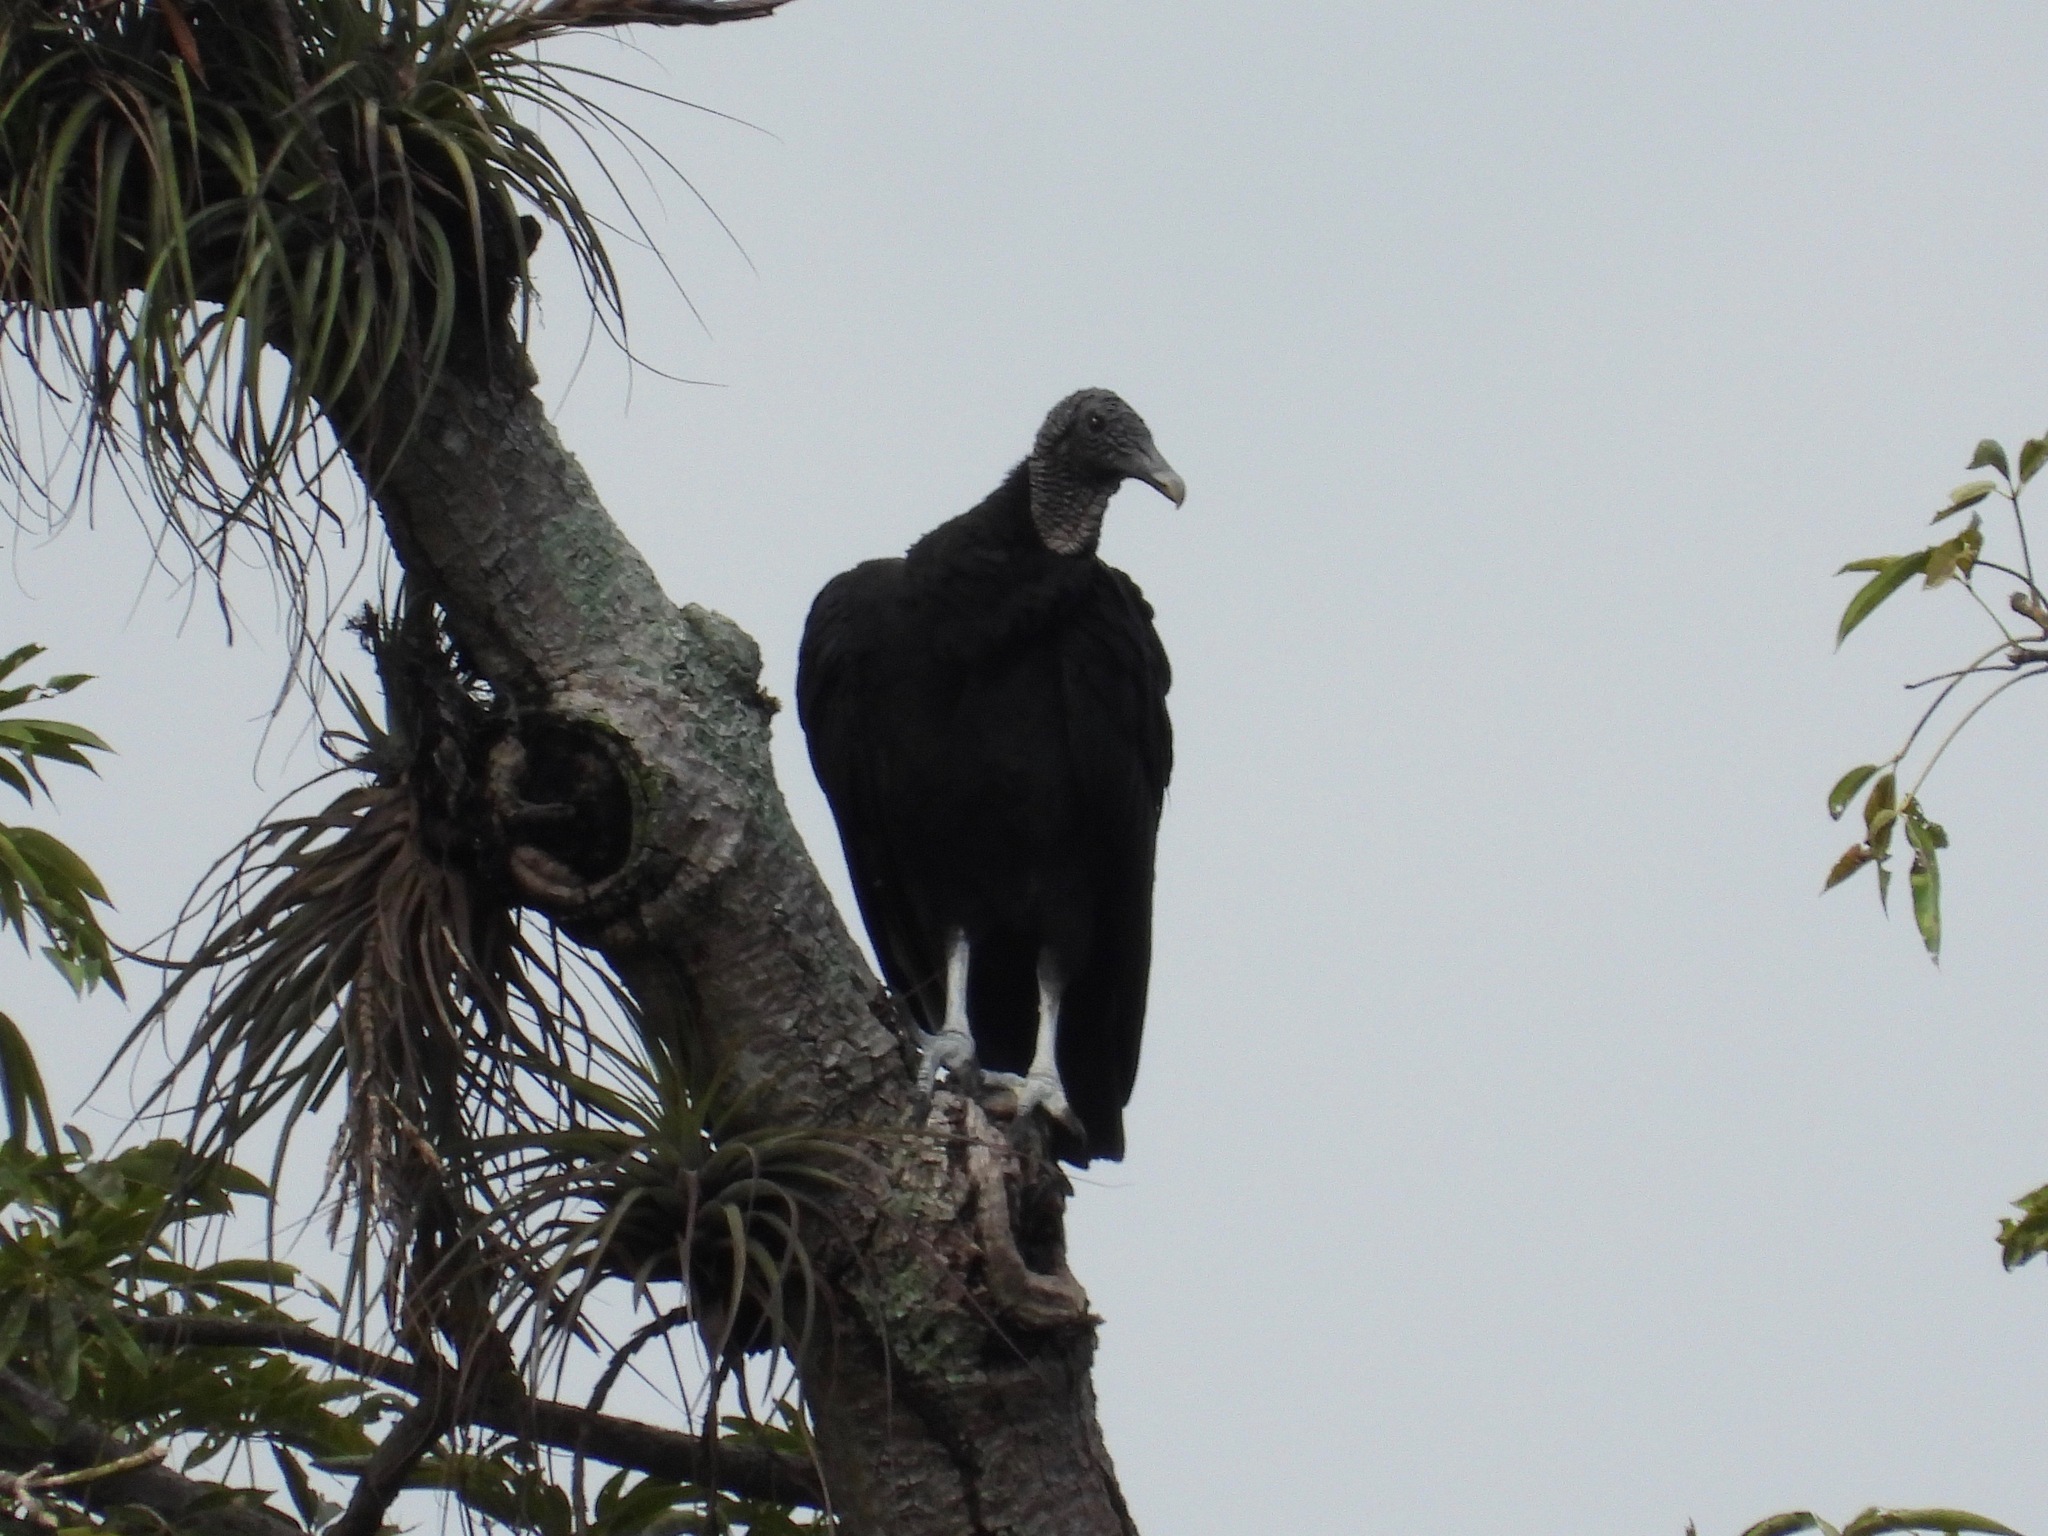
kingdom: Animalia
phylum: Chordata
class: Aves
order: Accipitriformes
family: Cathartidae
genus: Coragyps
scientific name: Coragyps atratus
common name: Black vulture
